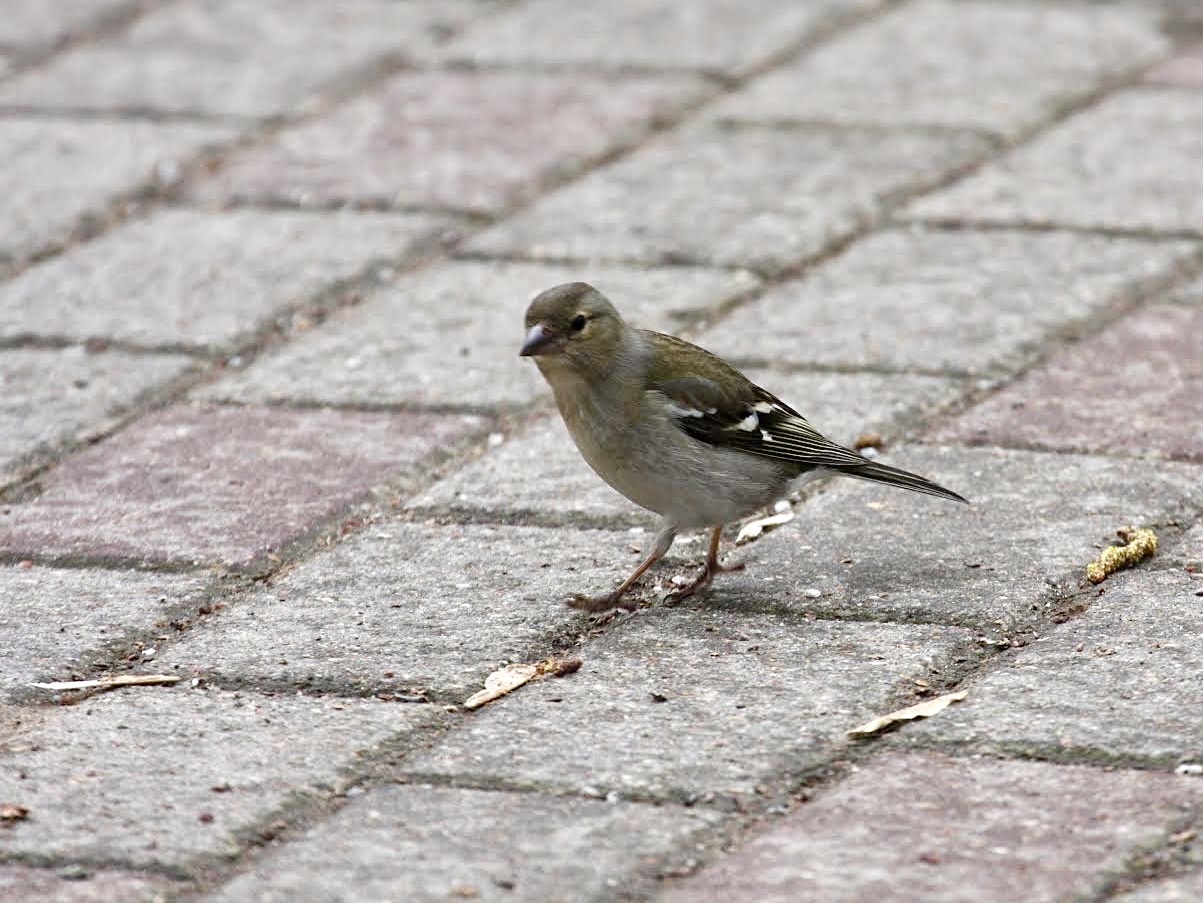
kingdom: Animalia
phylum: Chordata
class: Aves
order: Passeriformes
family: Fringillidae
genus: Fringilla
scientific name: Fringilla coelebs
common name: Common chaffinch
